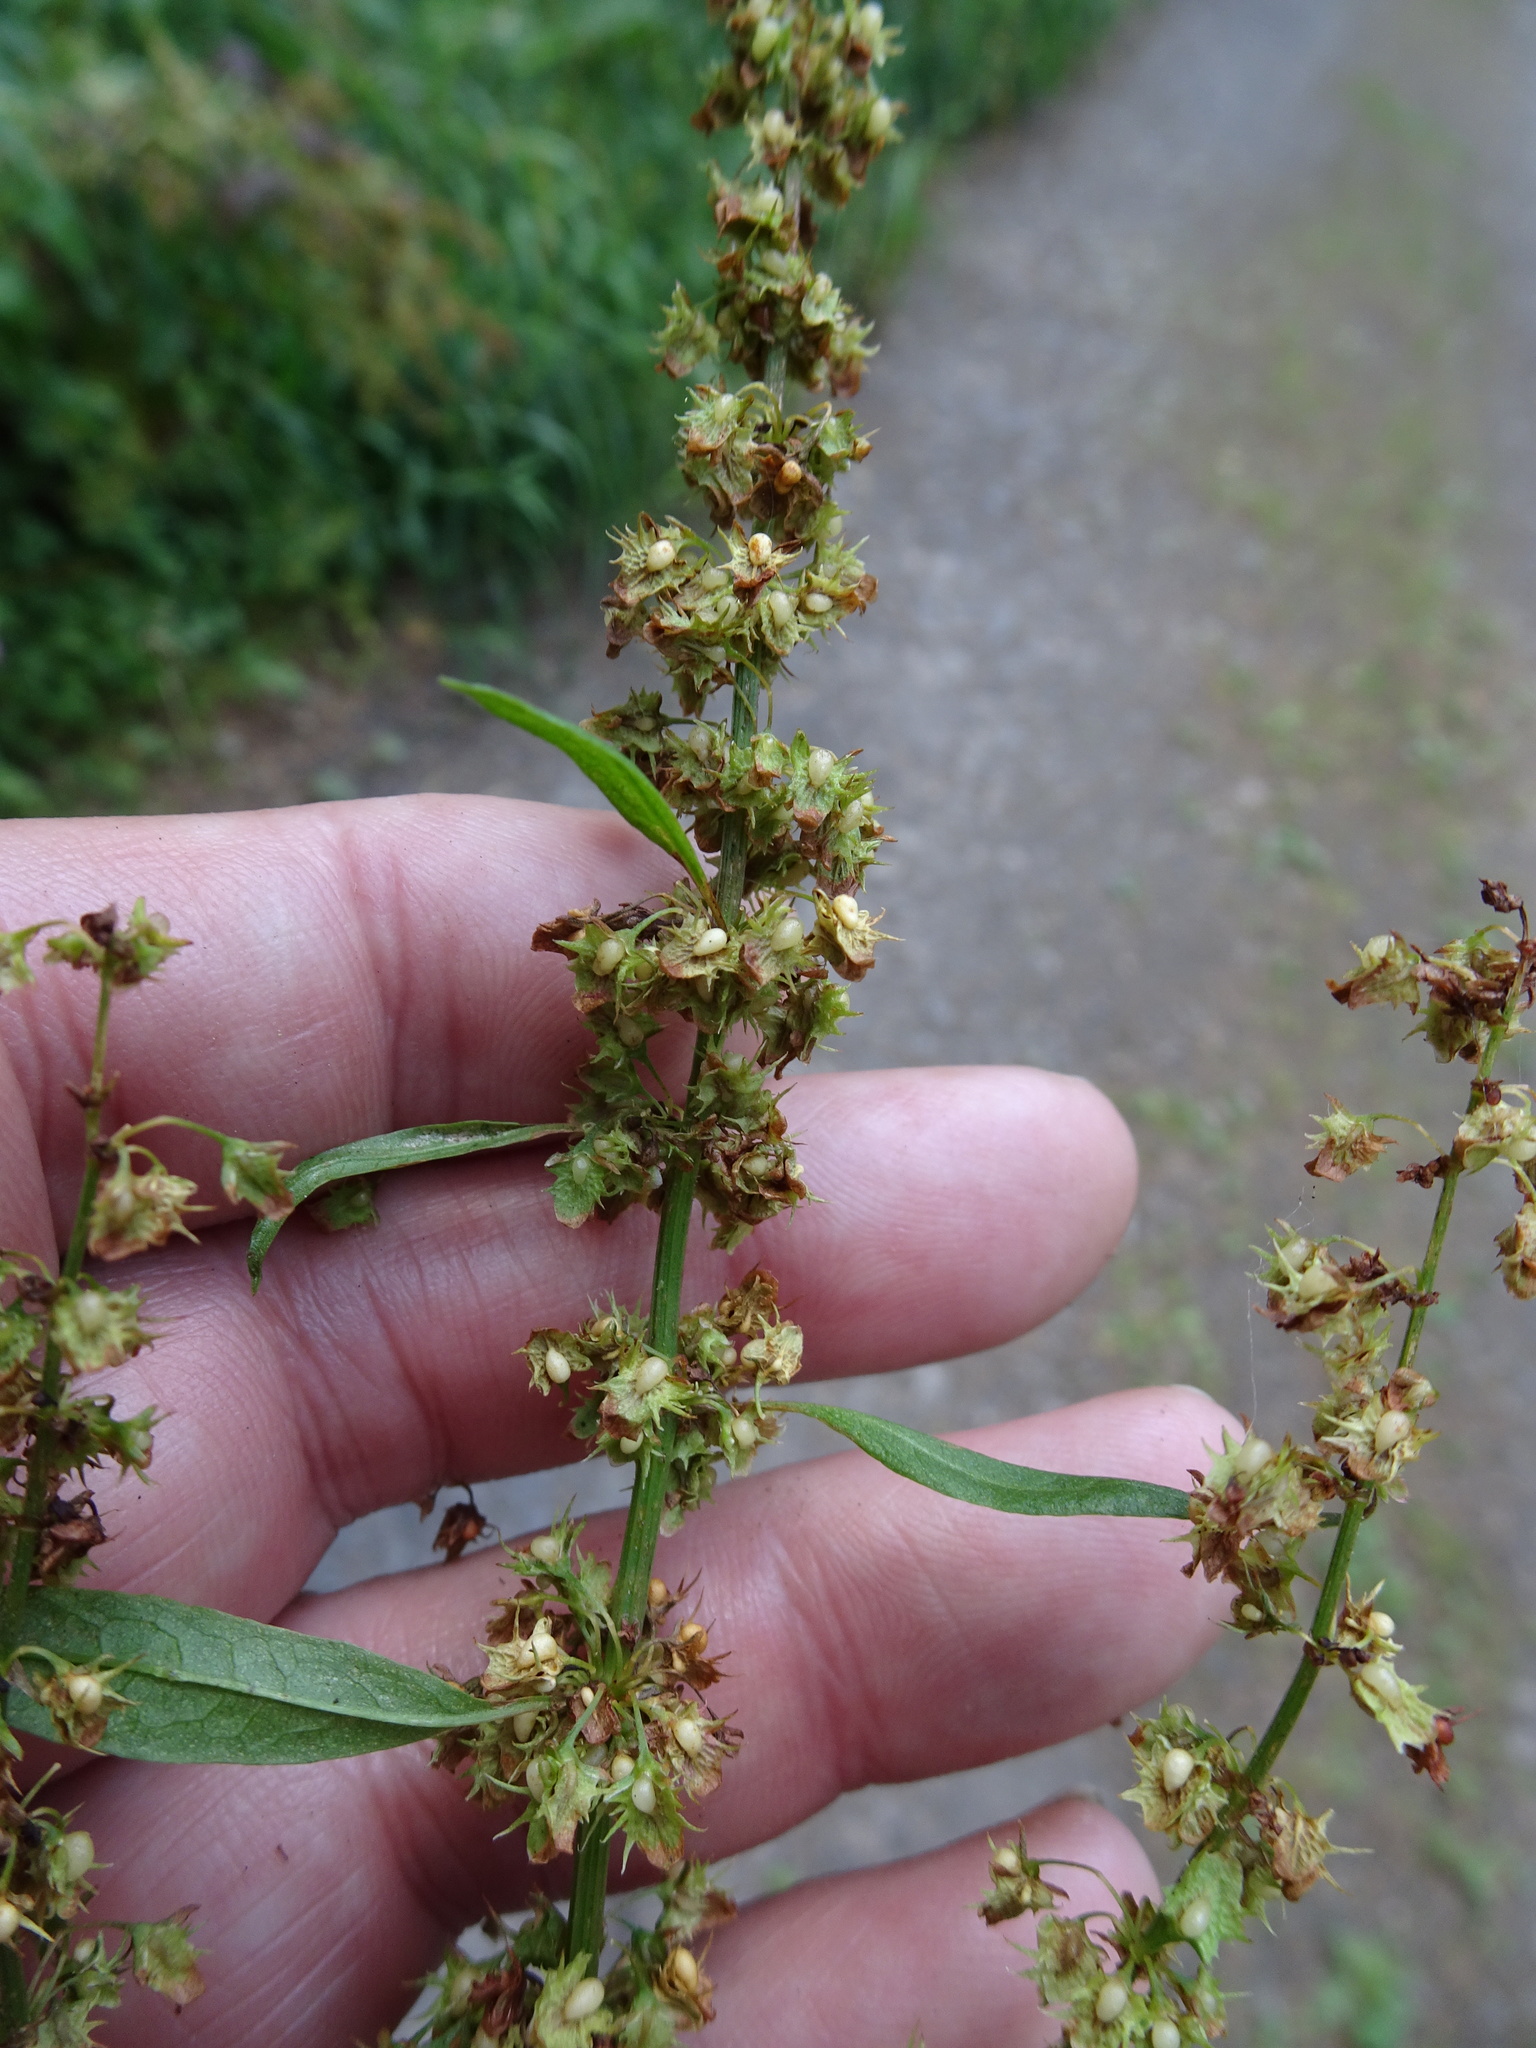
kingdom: Plantae
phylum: Tracheophyta
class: Magnoliopsida
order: Caryophyllales
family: Polygonaceae
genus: Rumex
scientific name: Rumex obtusifolius
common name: Bitter dock
